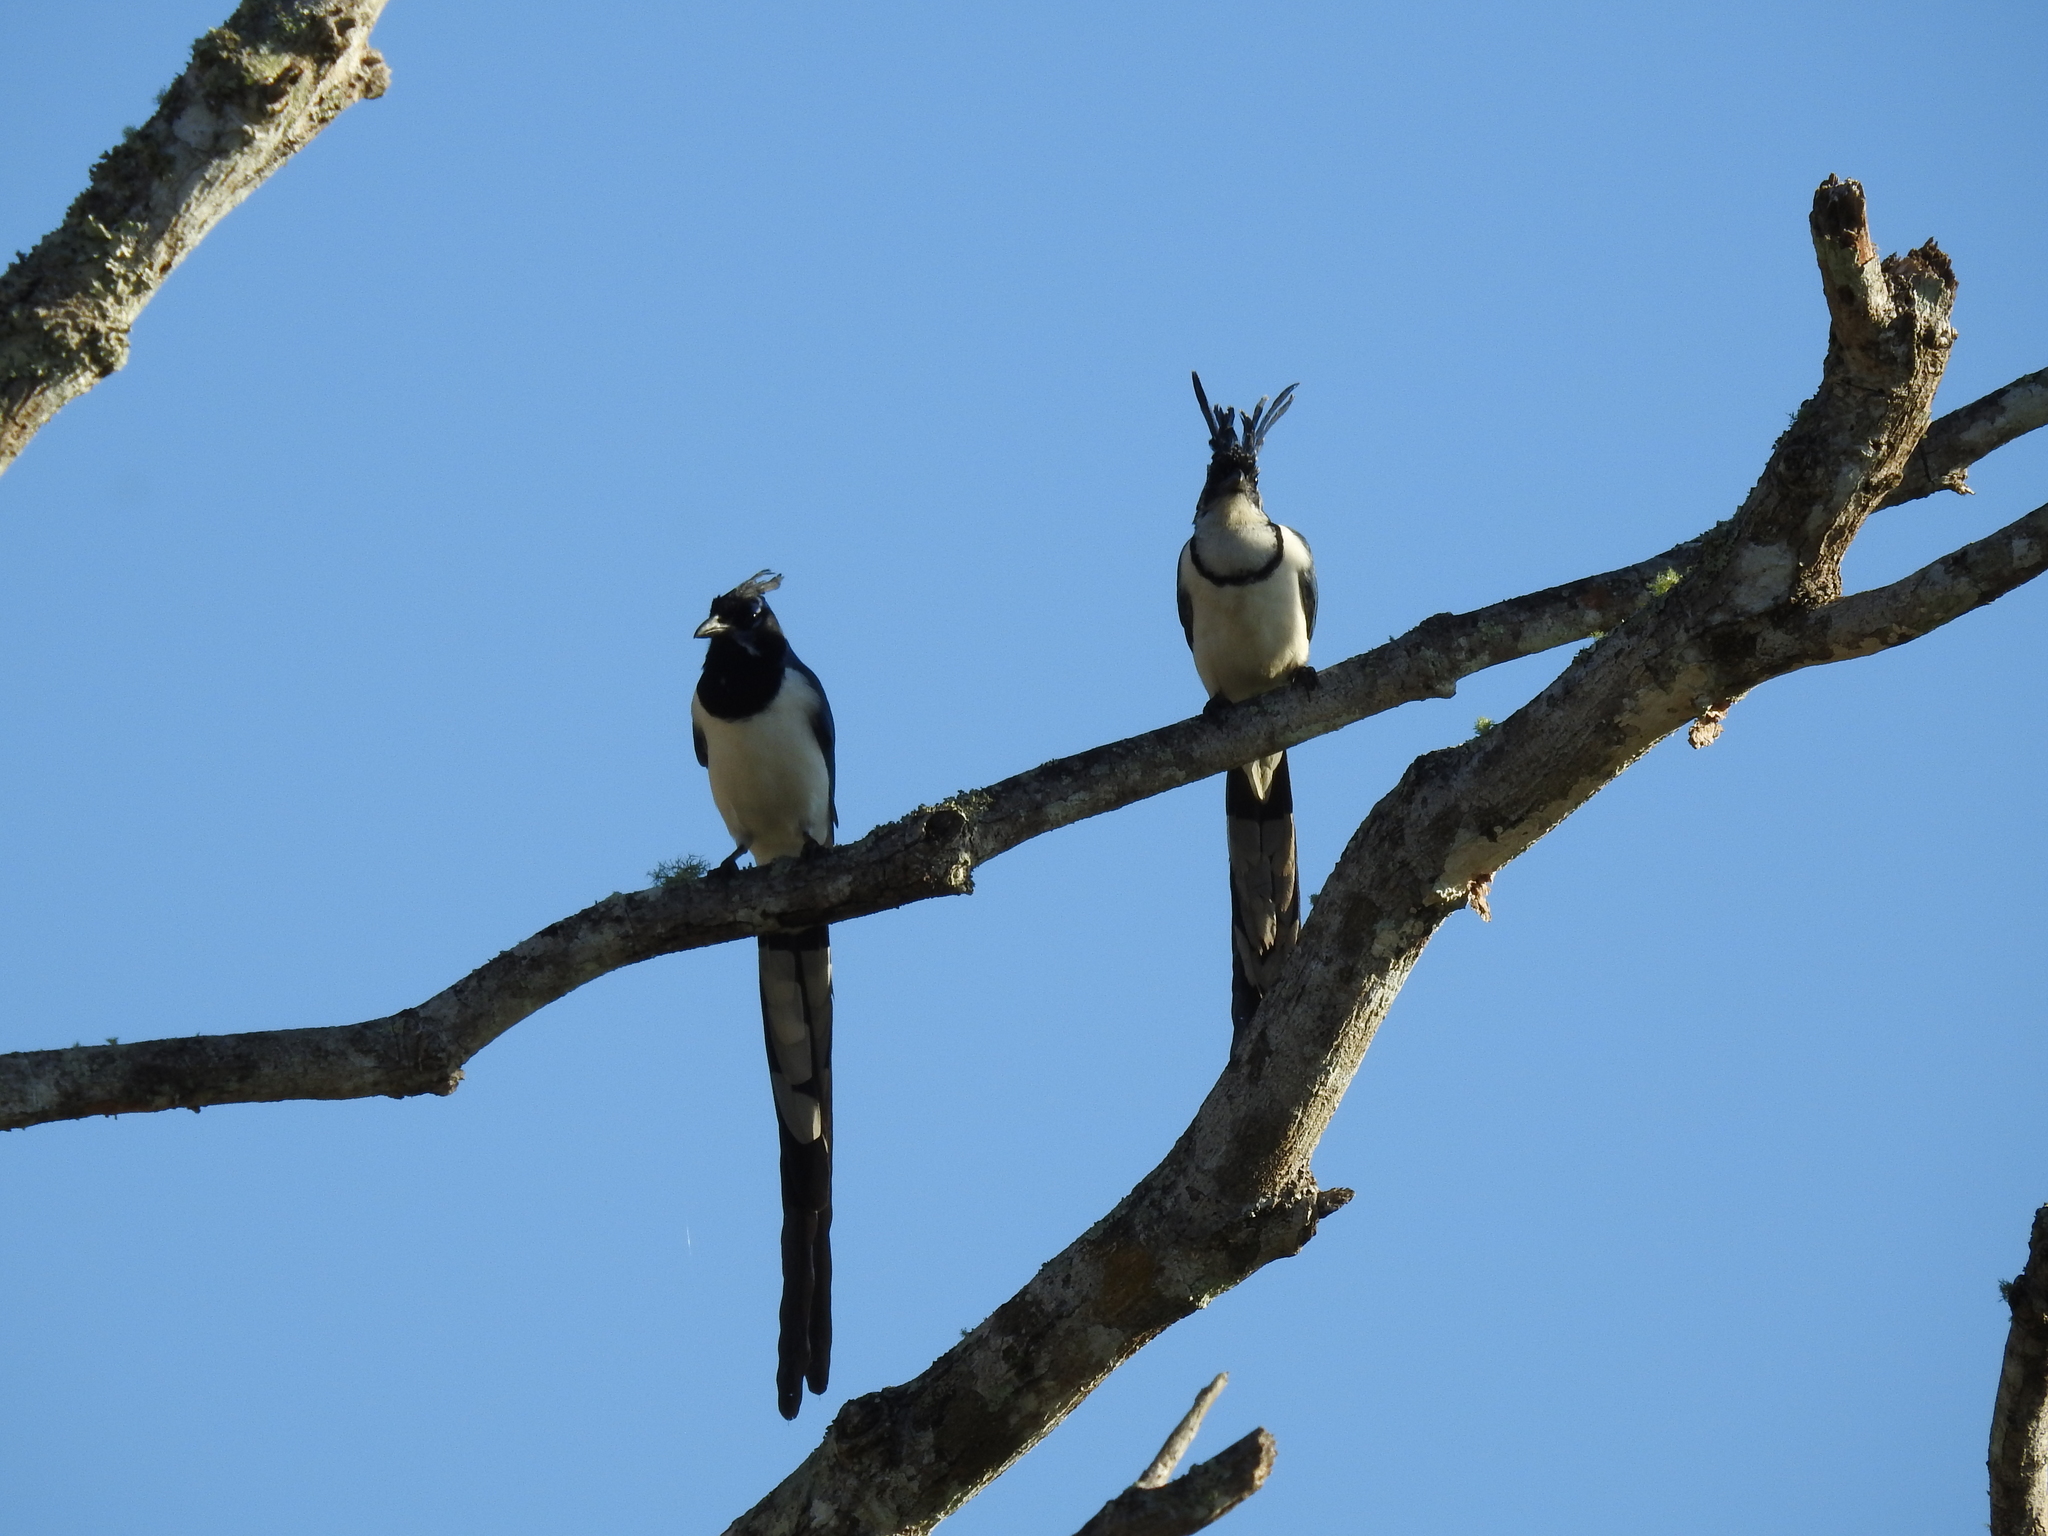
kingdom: Animalia
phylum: Chordata
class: Aves
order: Passeriformes
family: Corvidae
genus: Calocitta
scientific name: Calocitta colliei
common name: Black-throated magpie-jay
